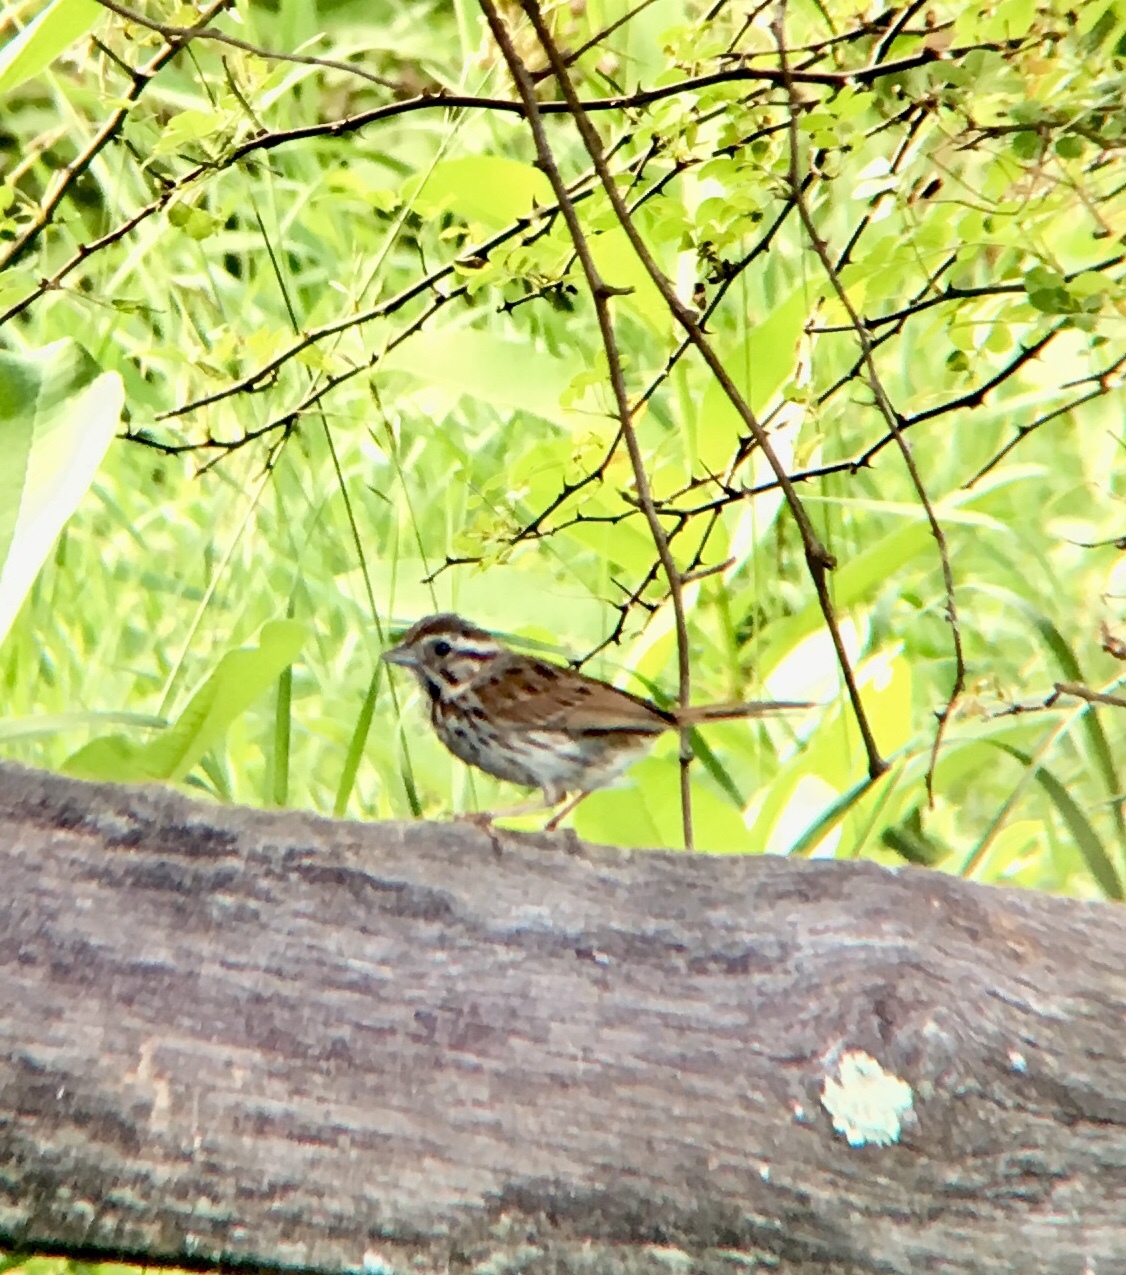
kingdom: Animalia
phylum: Chordata
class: Aves
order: Passeriformes
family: Passerellidae
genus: Melospiza
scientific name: Melospiza melodia
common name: Song sparrow
